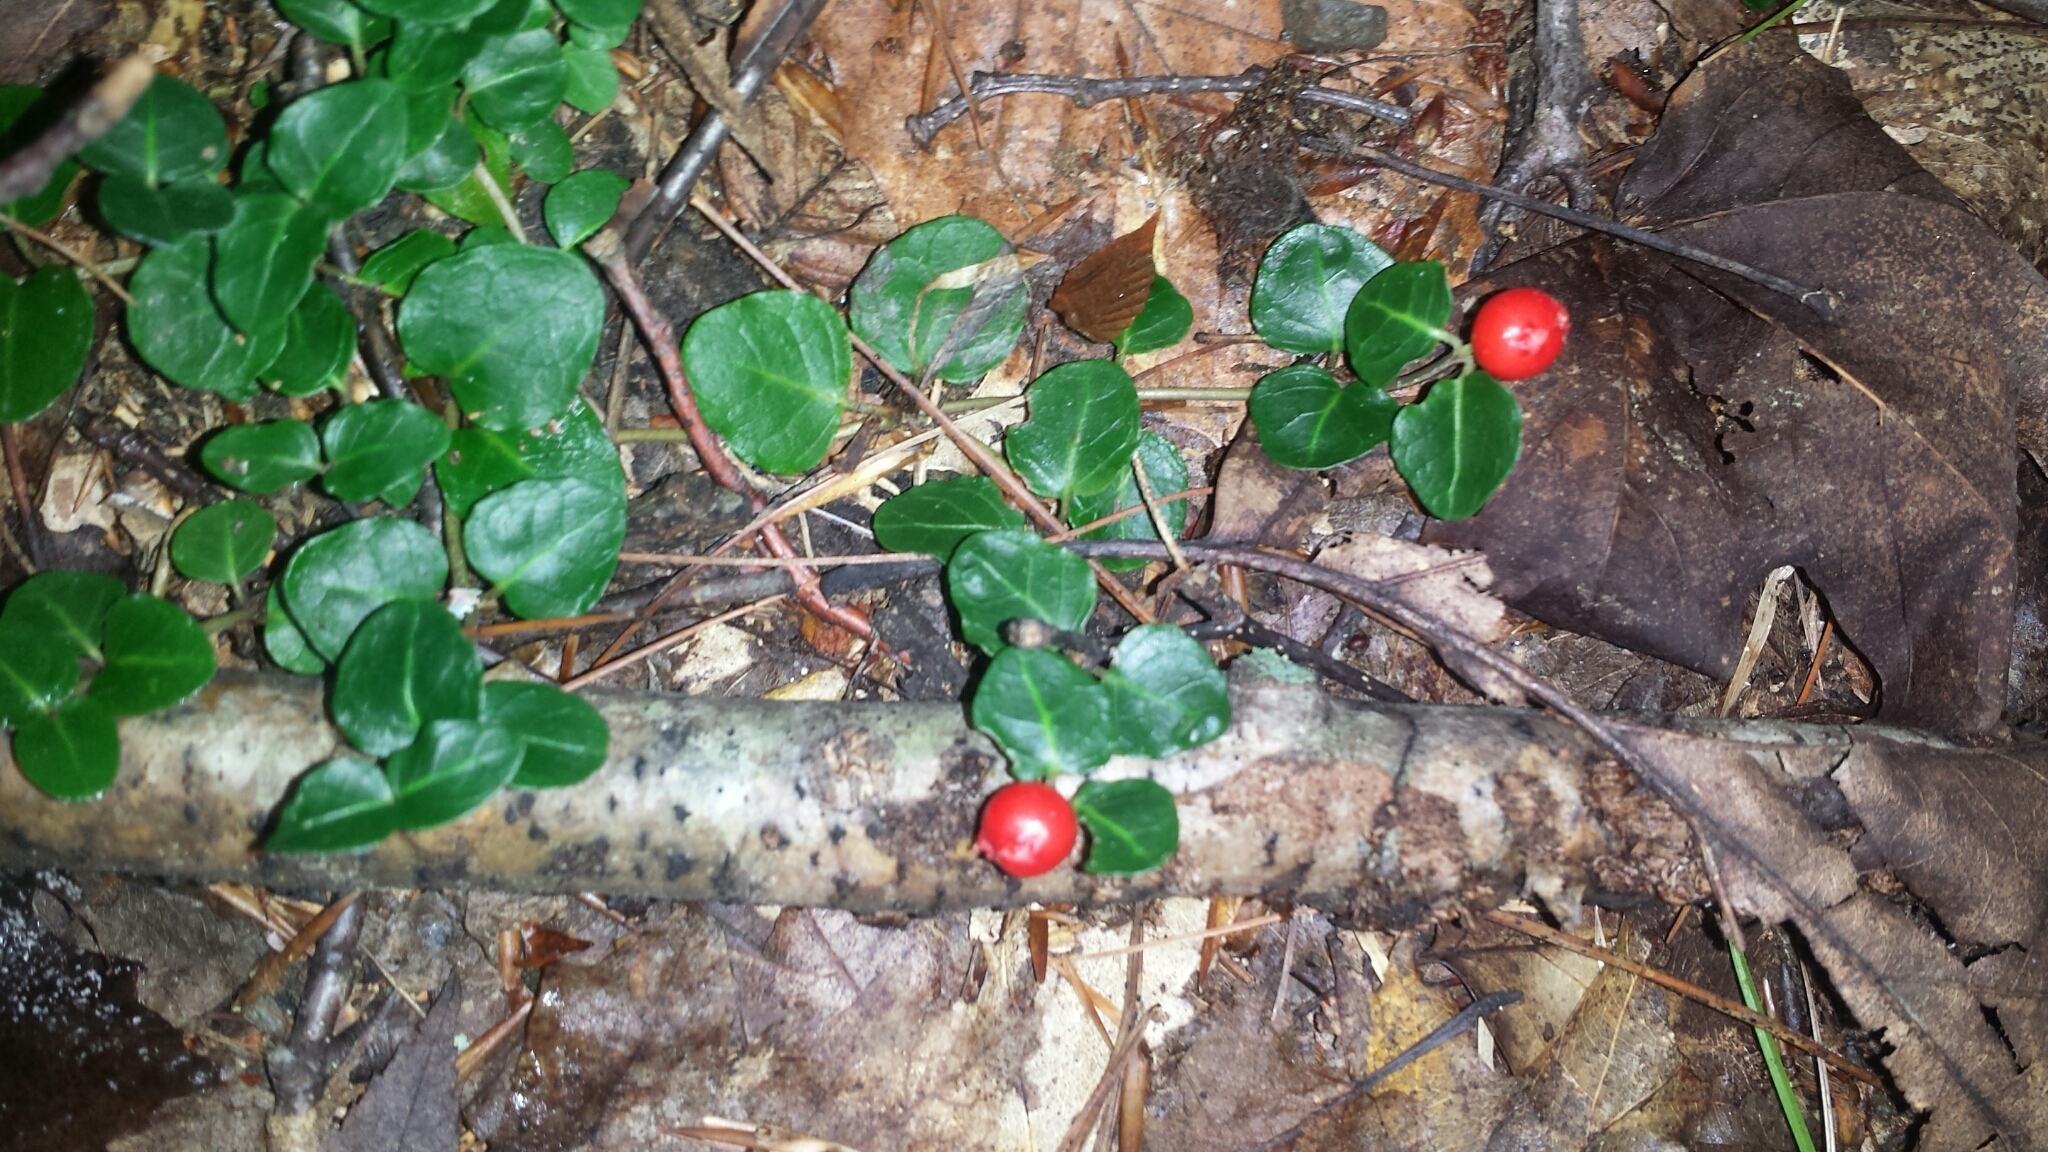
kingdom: Plantae
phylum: Tracheophyta
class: Magnoliopsida
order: Gentianales
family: Rubiaceae
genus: Mitchella
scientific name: Mitchella repens
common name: Partridge-berry
